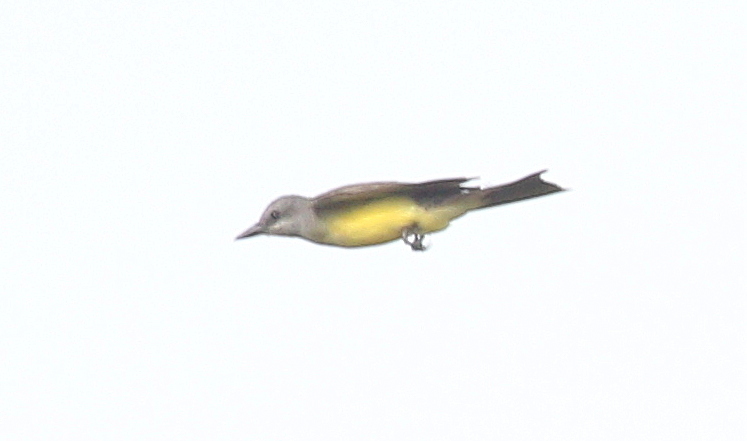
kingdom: Animalia
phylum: Chordata
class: Aves
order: Passeriformes
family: Tyrannidae
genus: Tyrannus
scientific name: Tyrannus melancholicus
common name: Tropical kingbird
